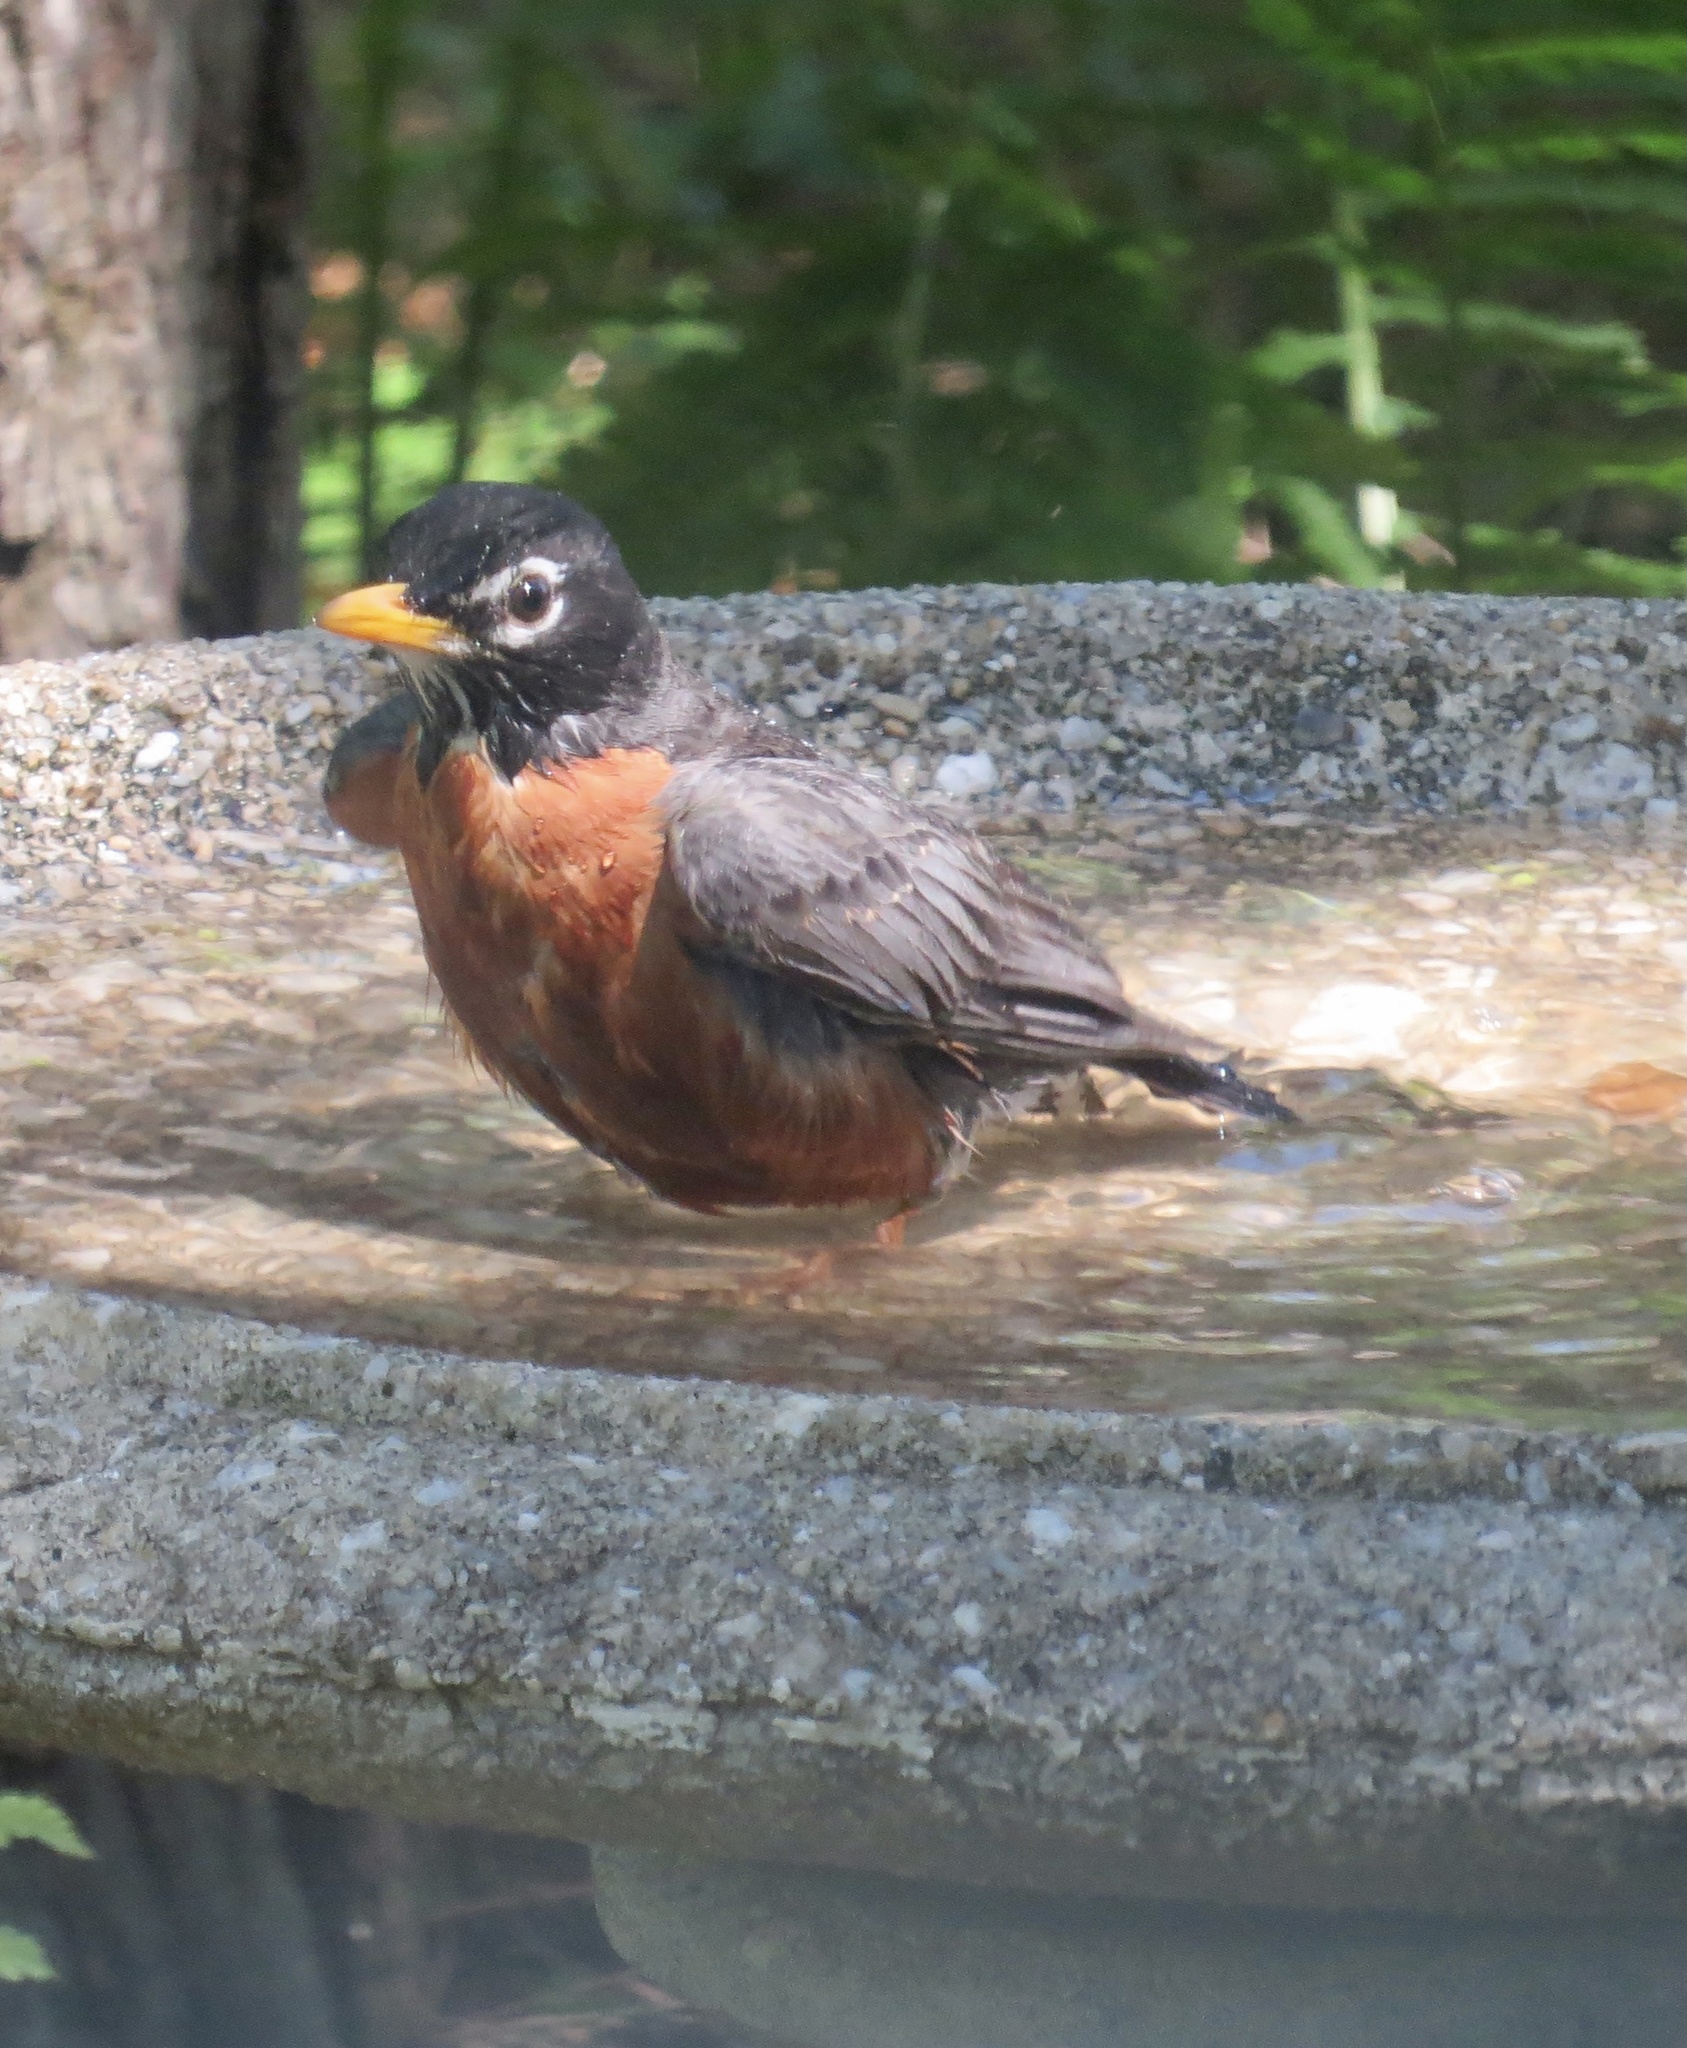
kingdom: Animalia
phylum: Chordata
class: Aves
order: Passeriformes
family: Turdidae
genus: Turdus
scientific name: Turdus migratorius
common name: American robin
